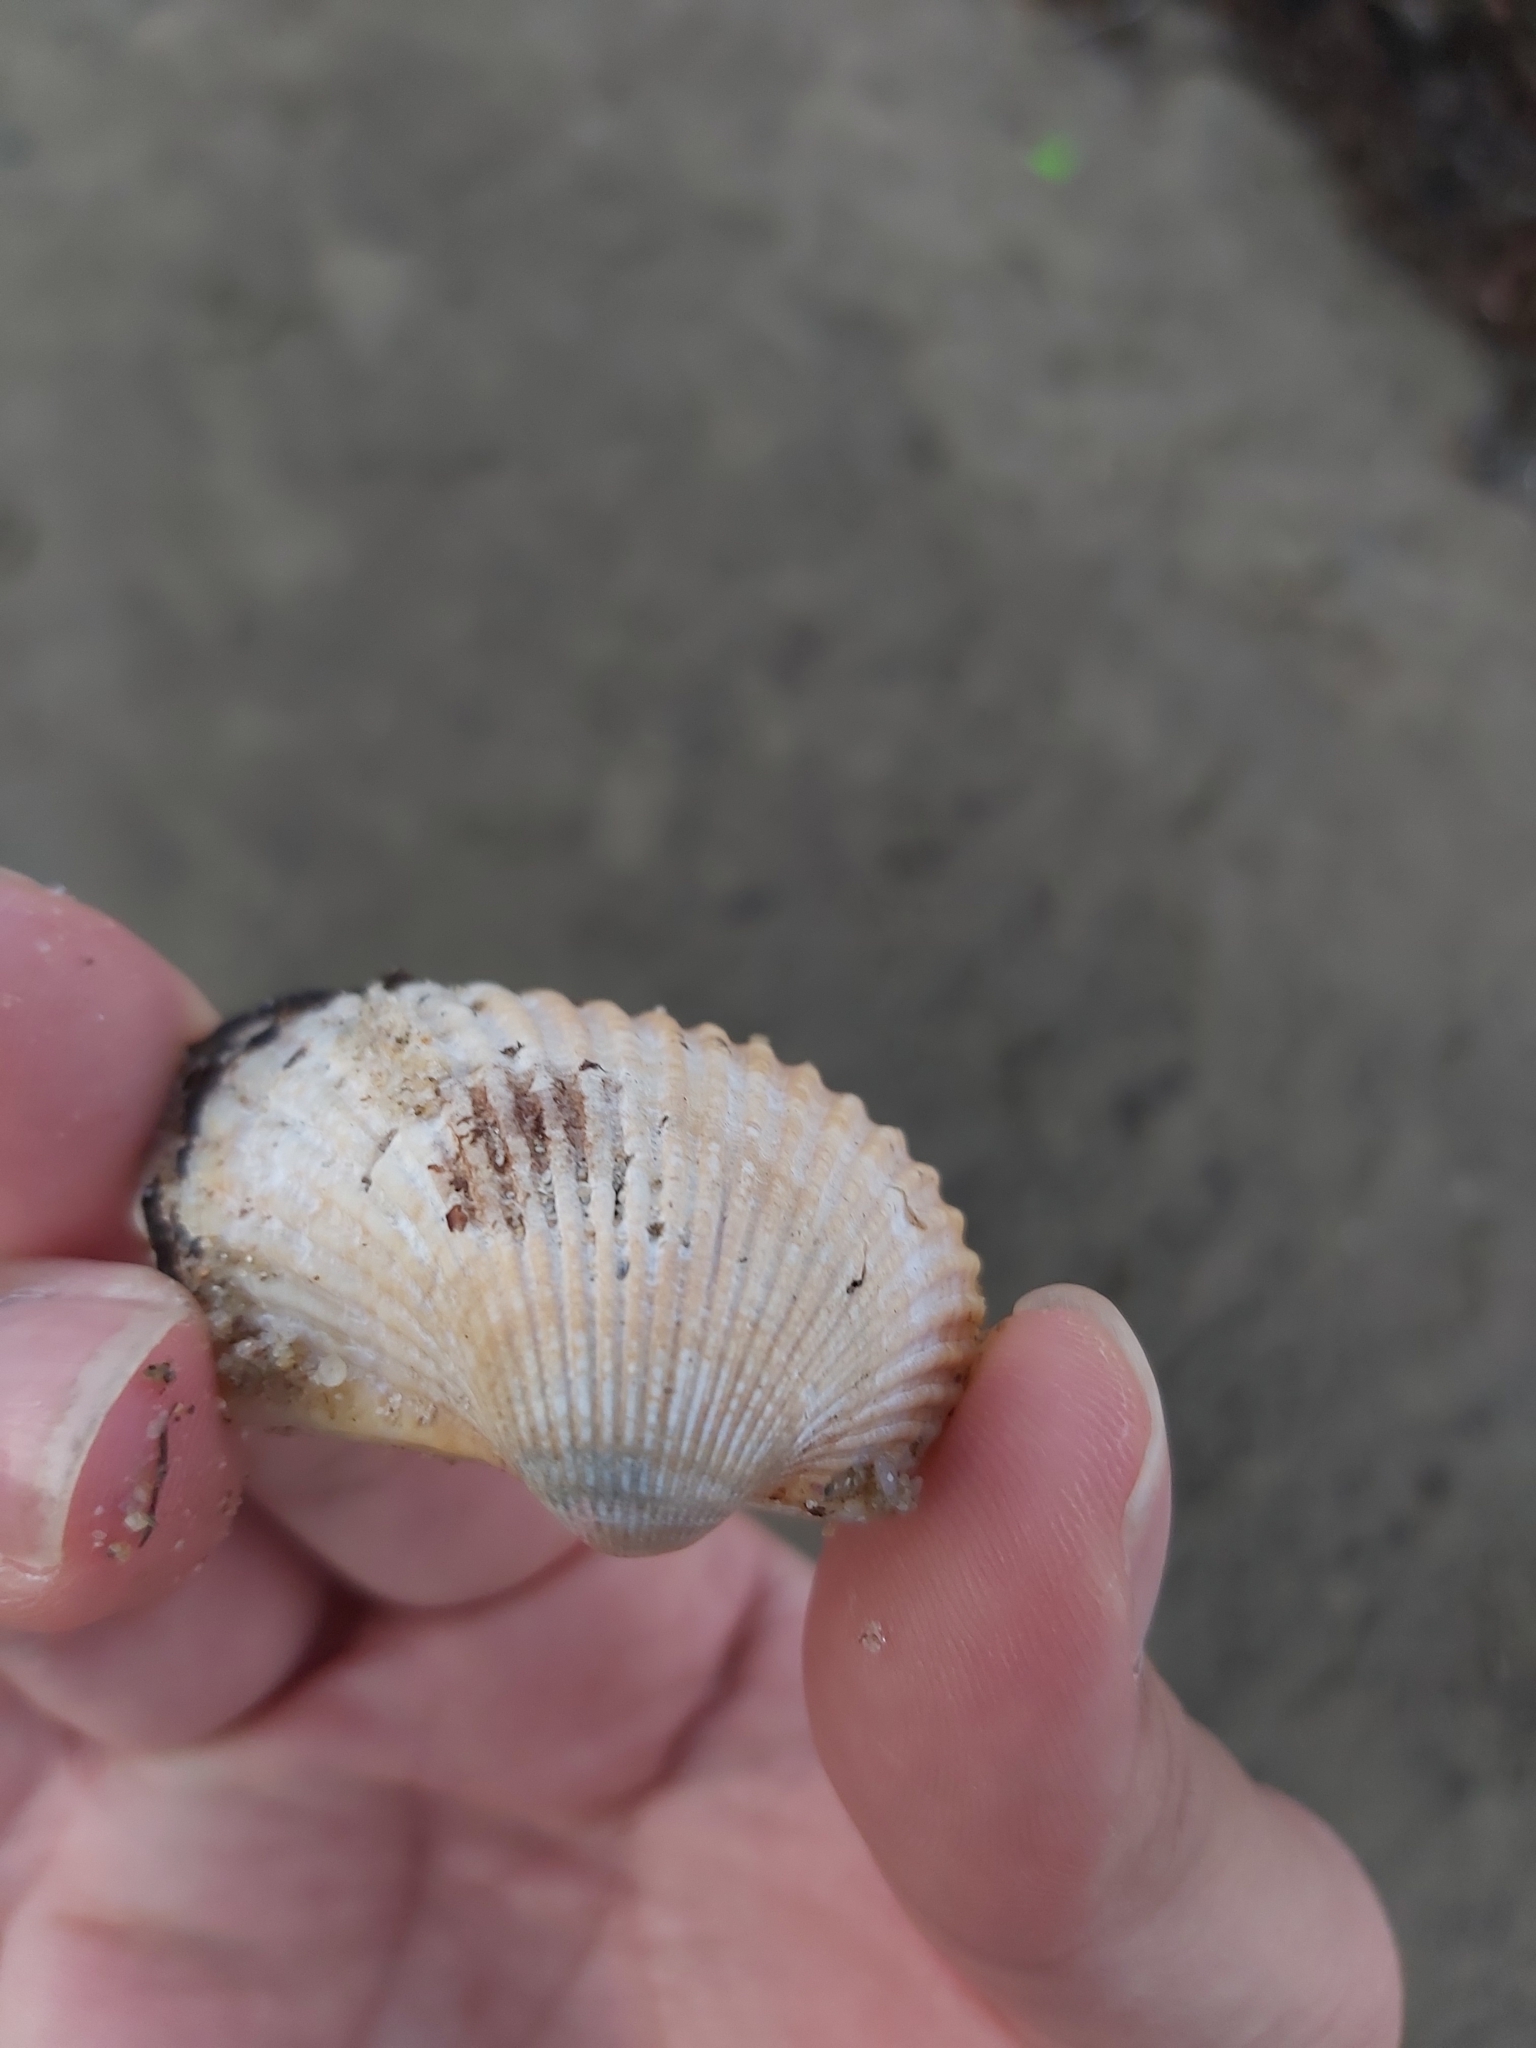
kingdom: Animalia
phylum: Mollusca
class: Bivalvia
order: Arcida
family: Arcidae
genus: Anadara
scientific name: Anadara trapezia
